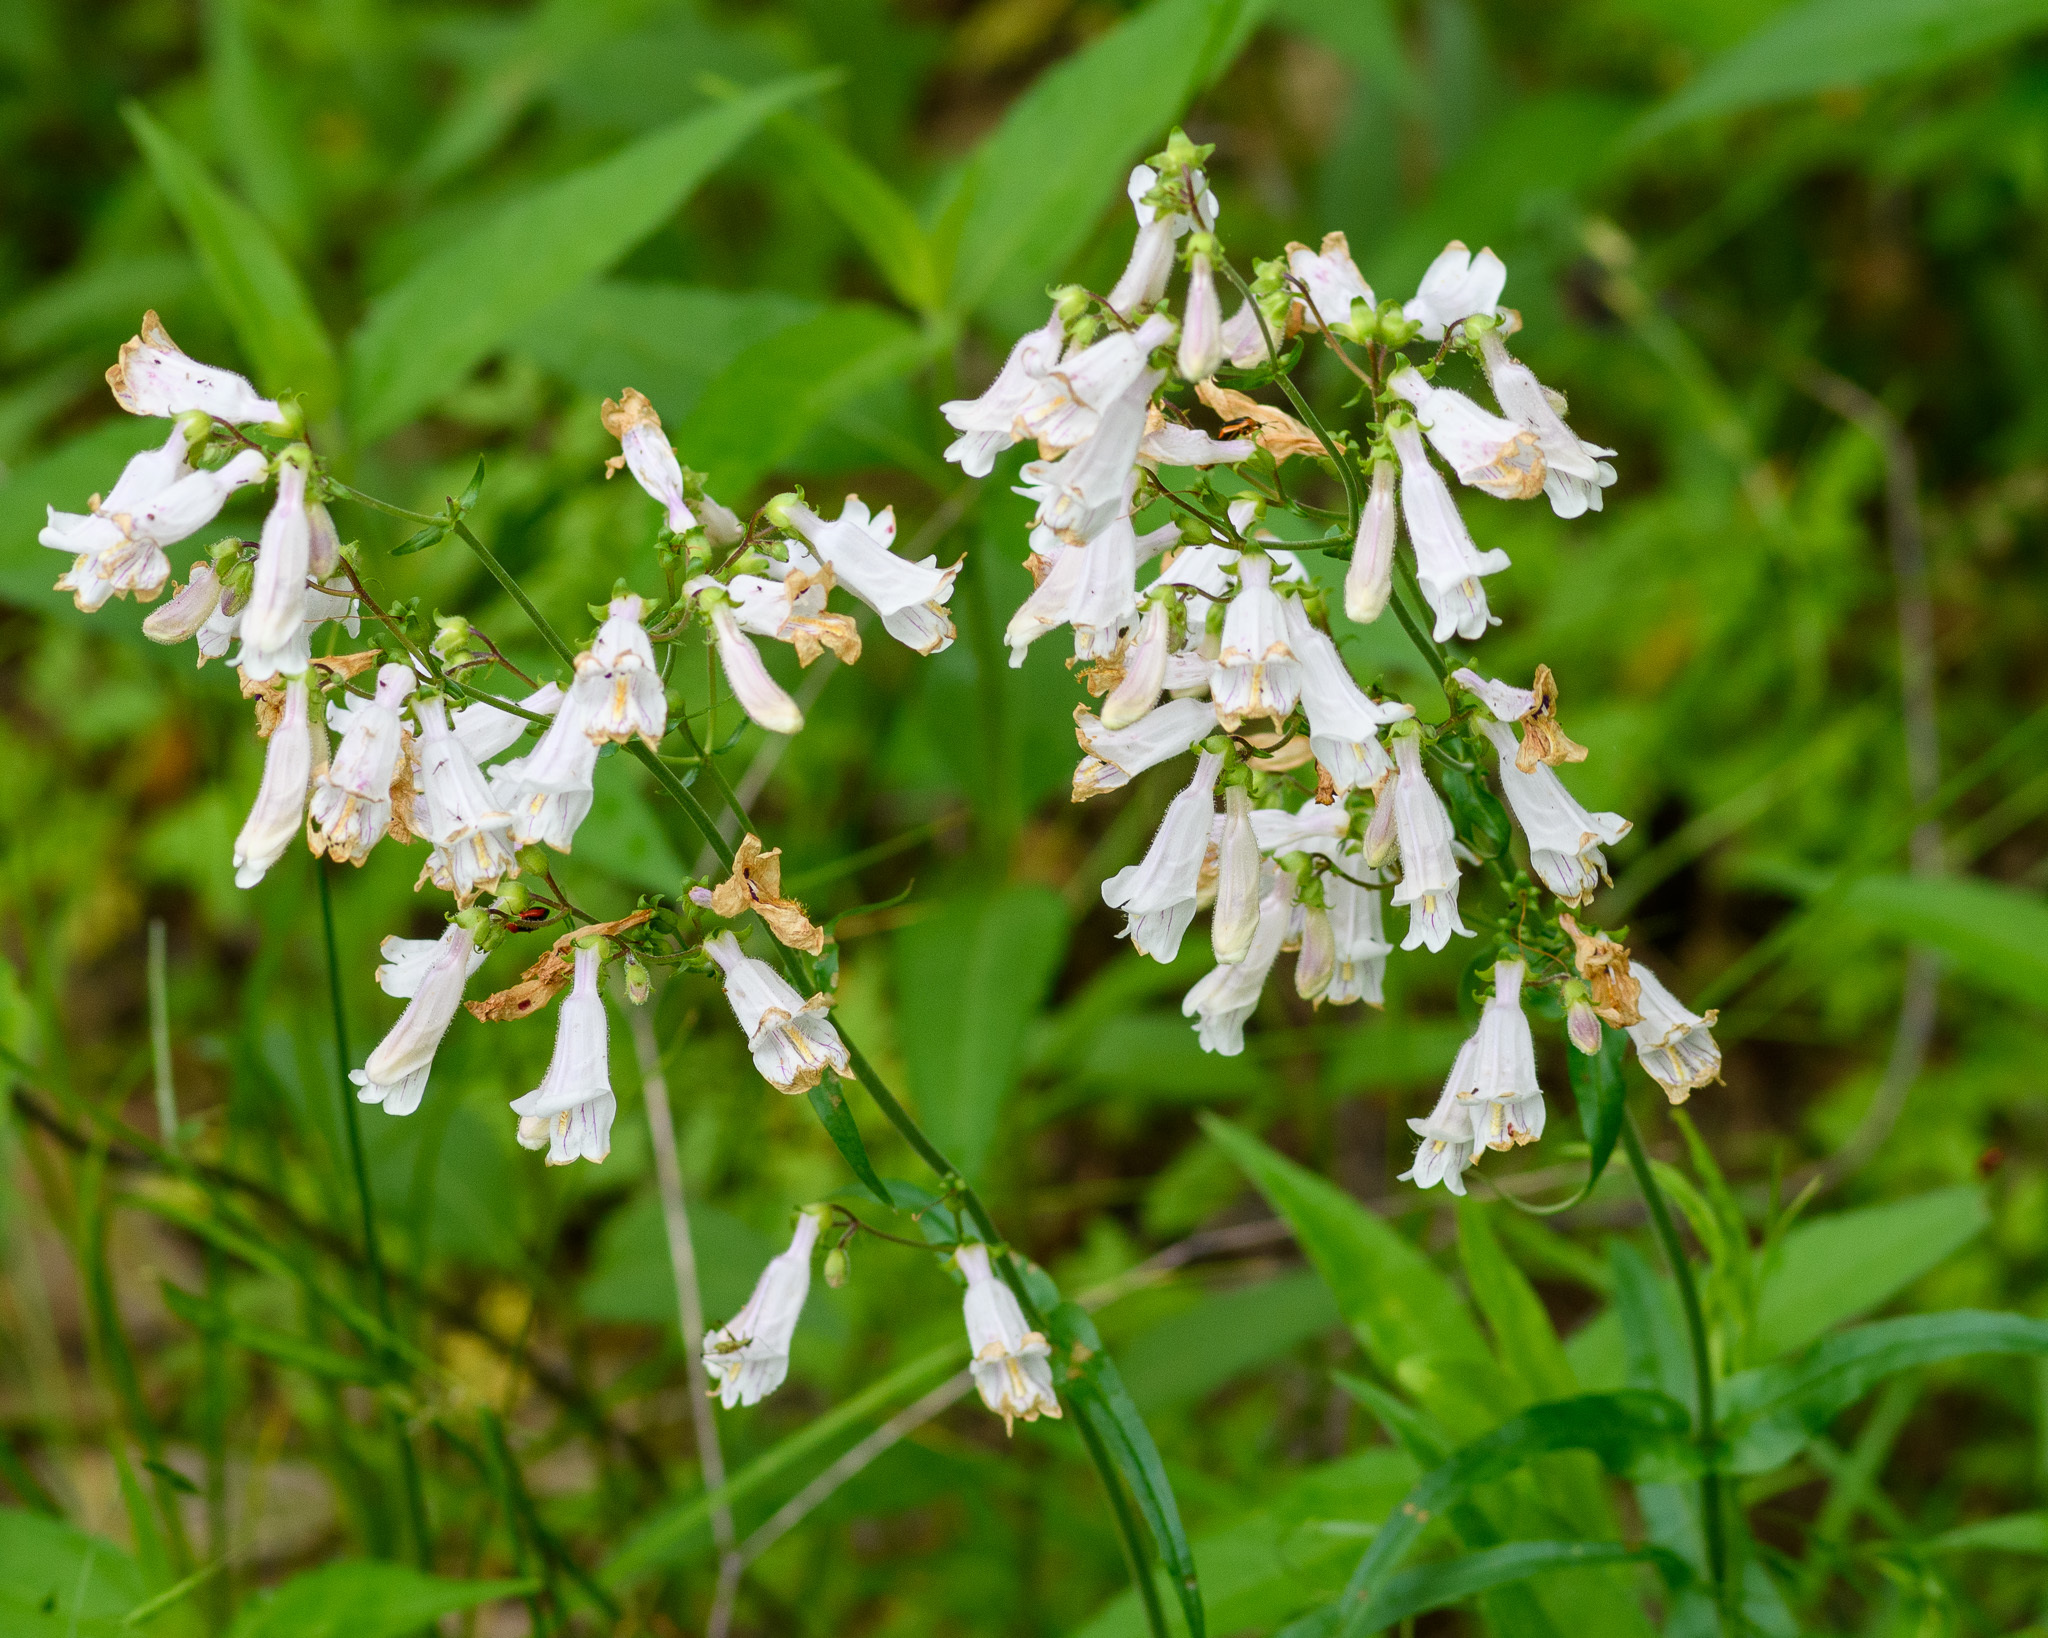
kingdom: Plantae
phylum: Tracheophyta
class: Magnoliopsida
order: Lamiales
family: Plantaginaceae
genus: Penstemon
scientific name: Penstemon laxiflorus
